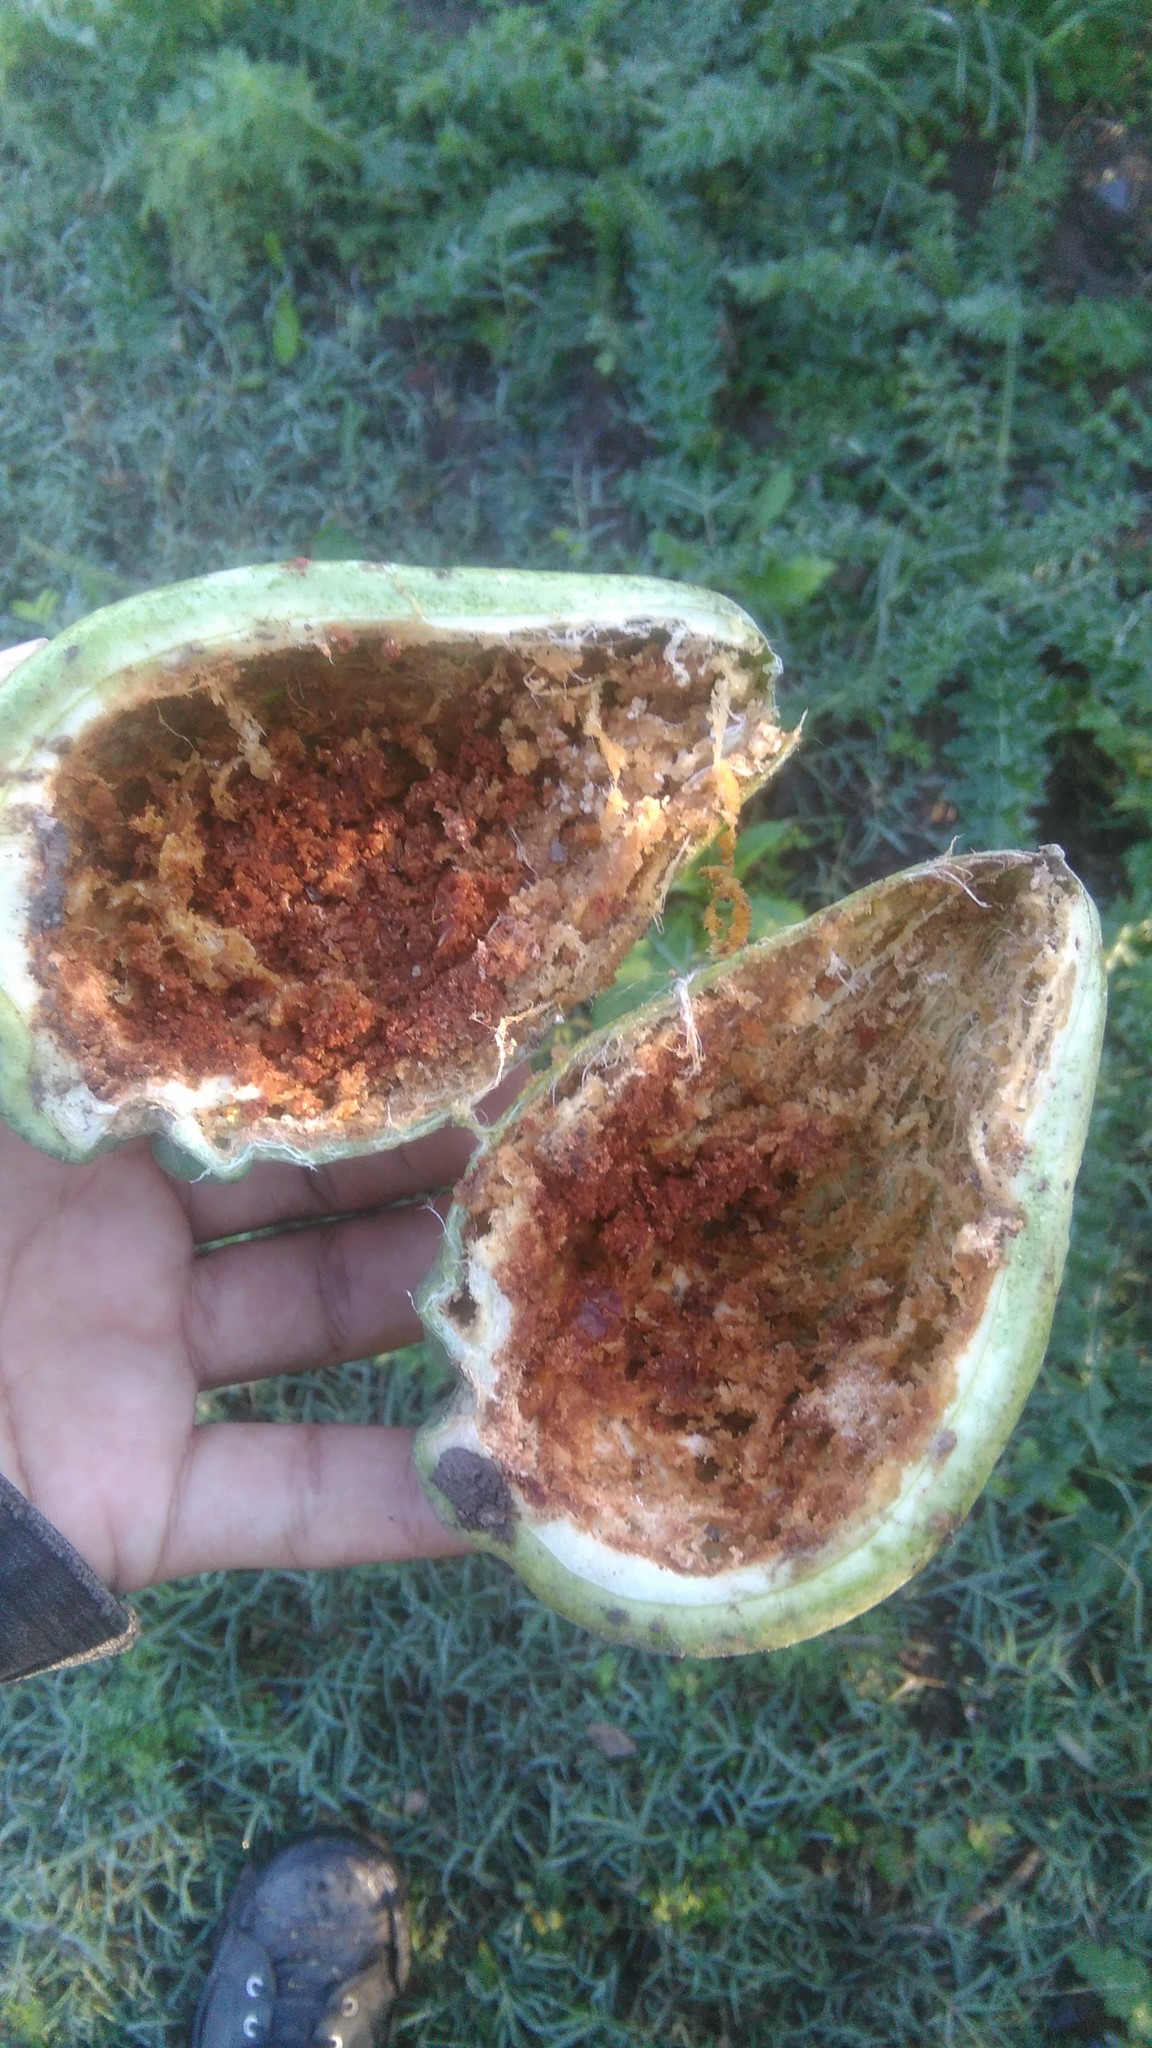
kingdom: Plantae
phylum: Tracheophyta
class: Magnoliopsida
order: Gentianales
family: Apocynaceae
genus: Araujia
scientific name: Araujia sericifera
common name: White bladderflower
